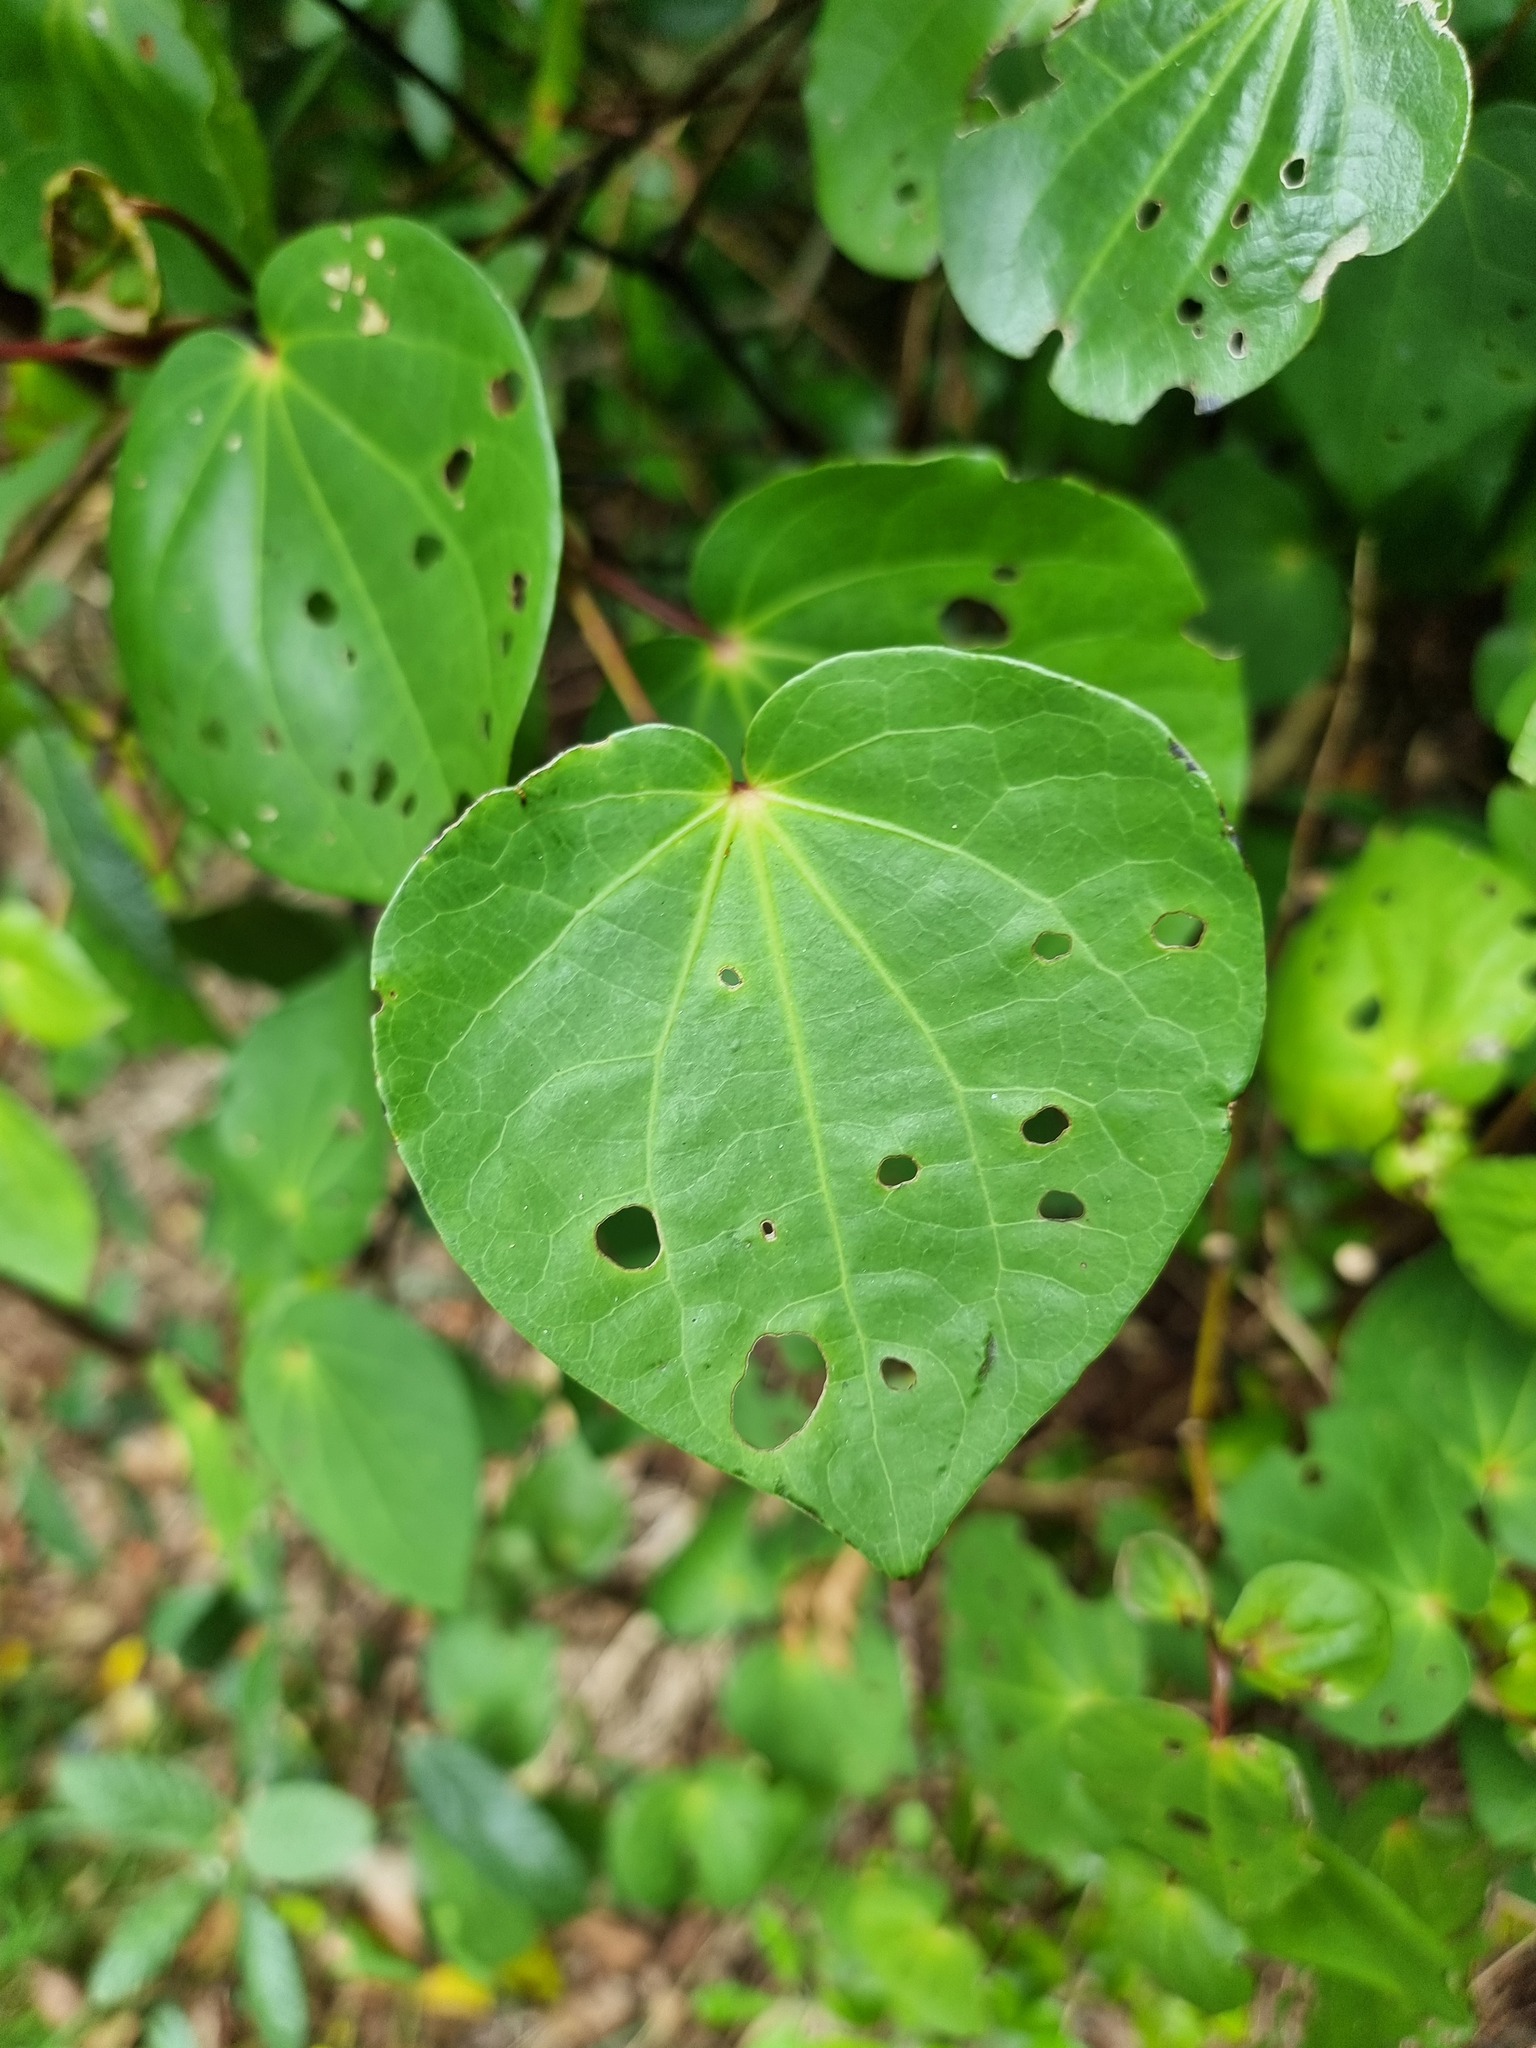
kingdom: Plantae
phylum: Tracheophyta
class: Magnoliopsida
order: Piperales
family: Piperaceae
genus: Macropiper
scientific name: Macropiper excelsum
